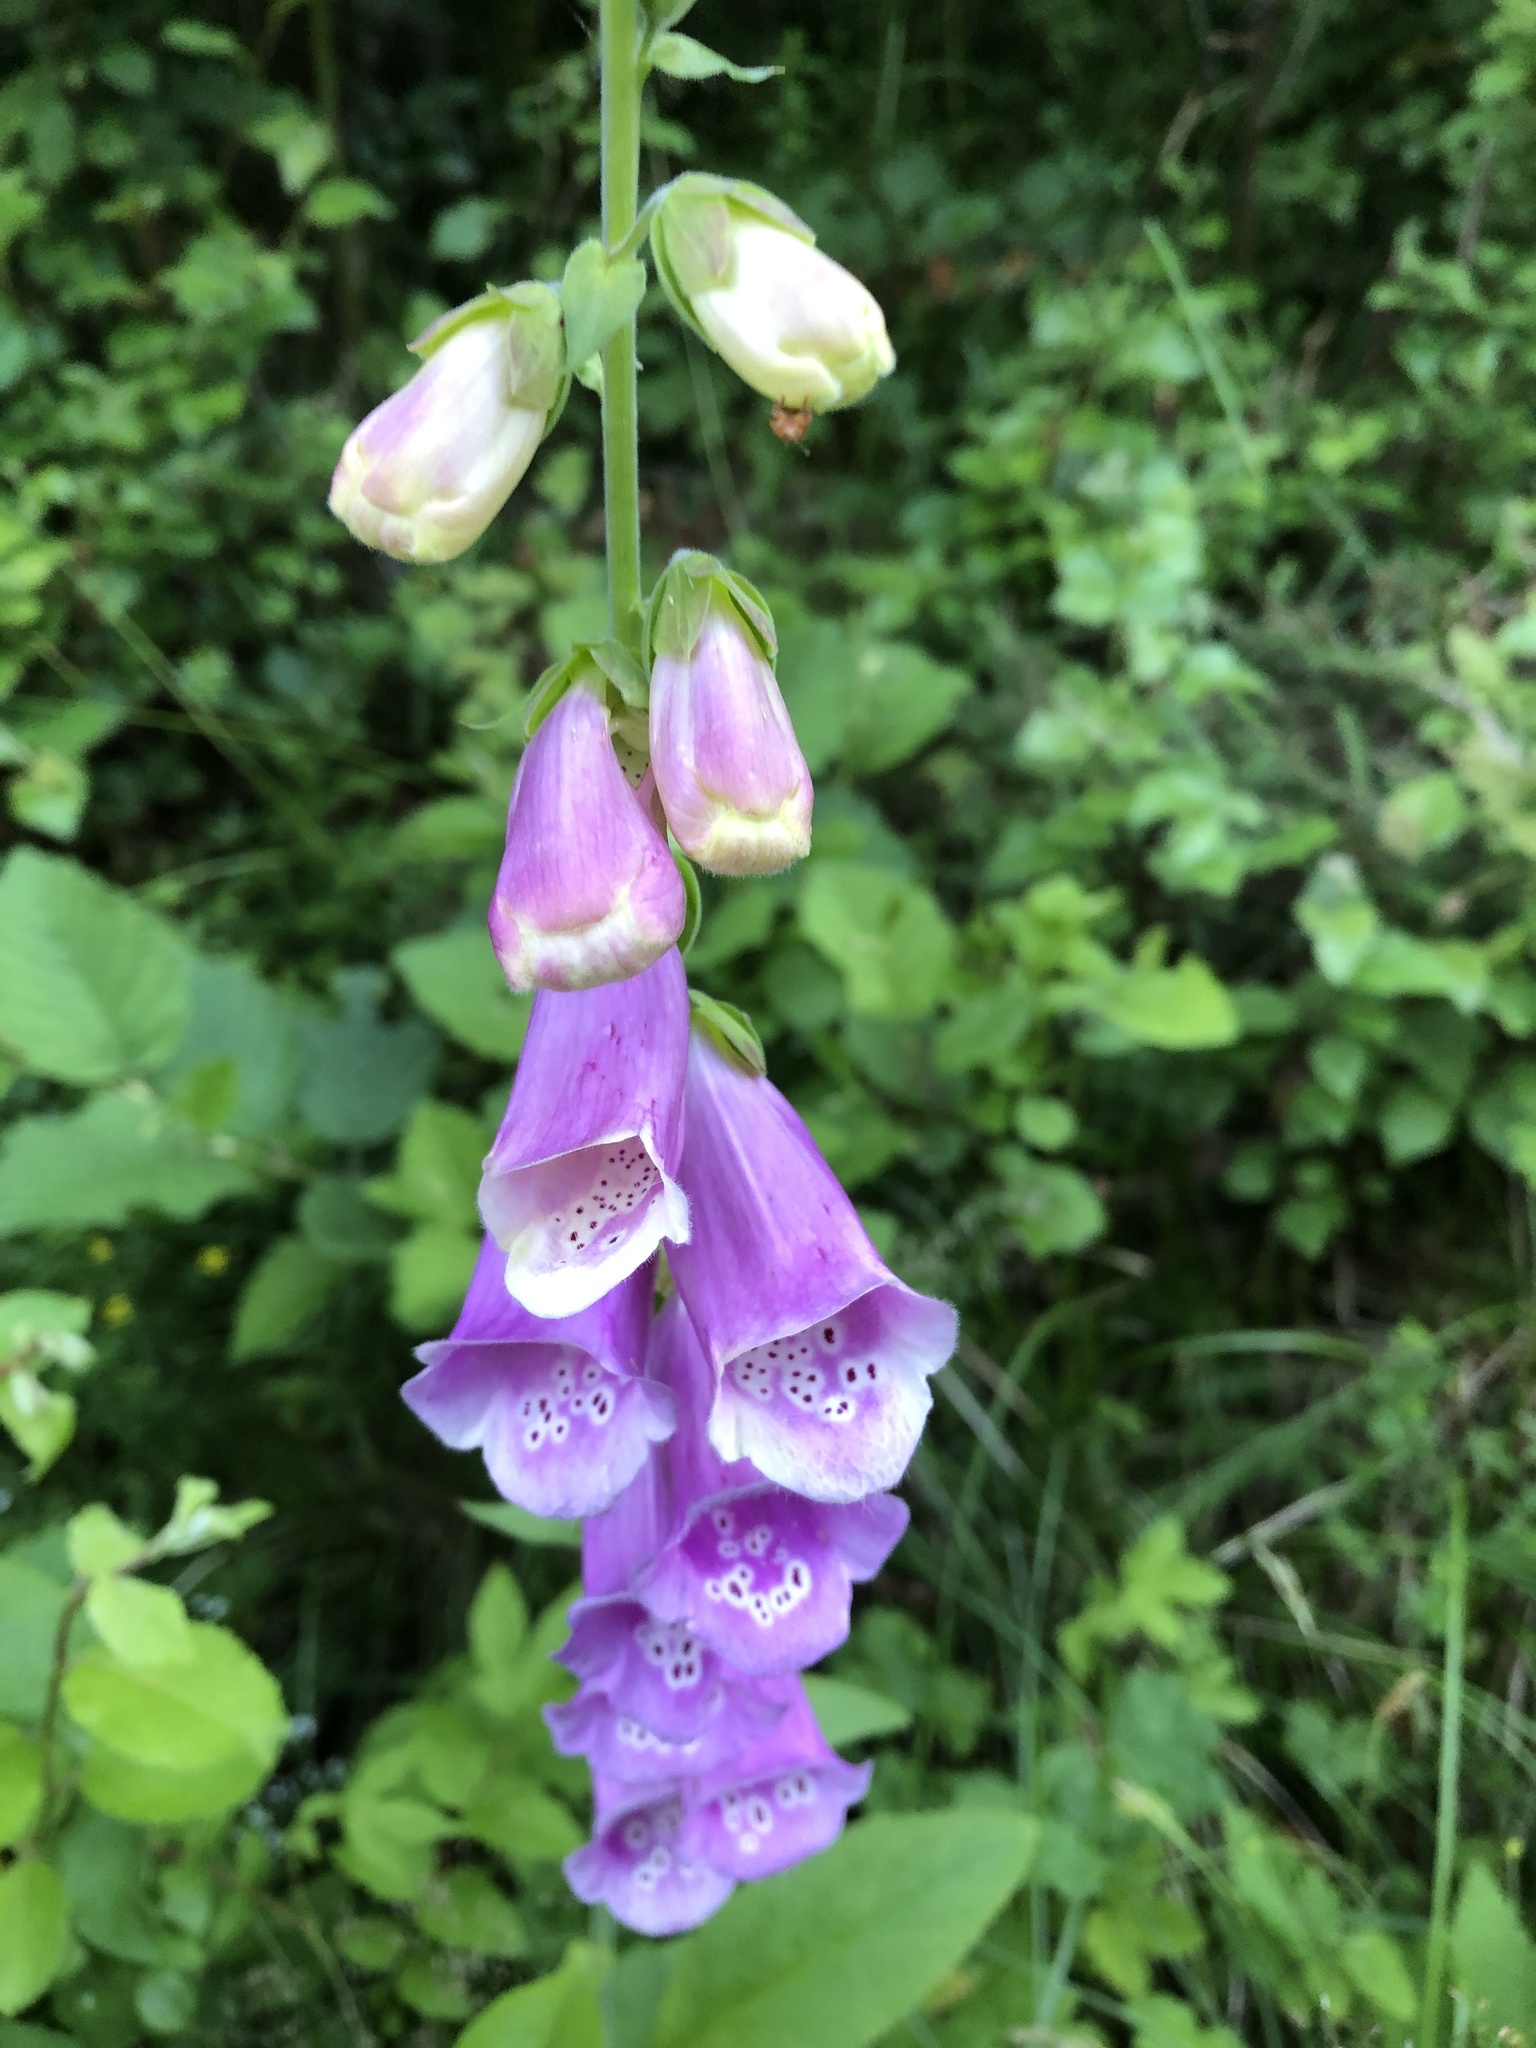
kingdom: Plantae
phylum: Tracheophyta
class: Magnoliopsida
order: Lamiales
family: Plantaginaceae
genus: Digitalis
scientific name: Digitalis purpurea
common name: Foxglove
